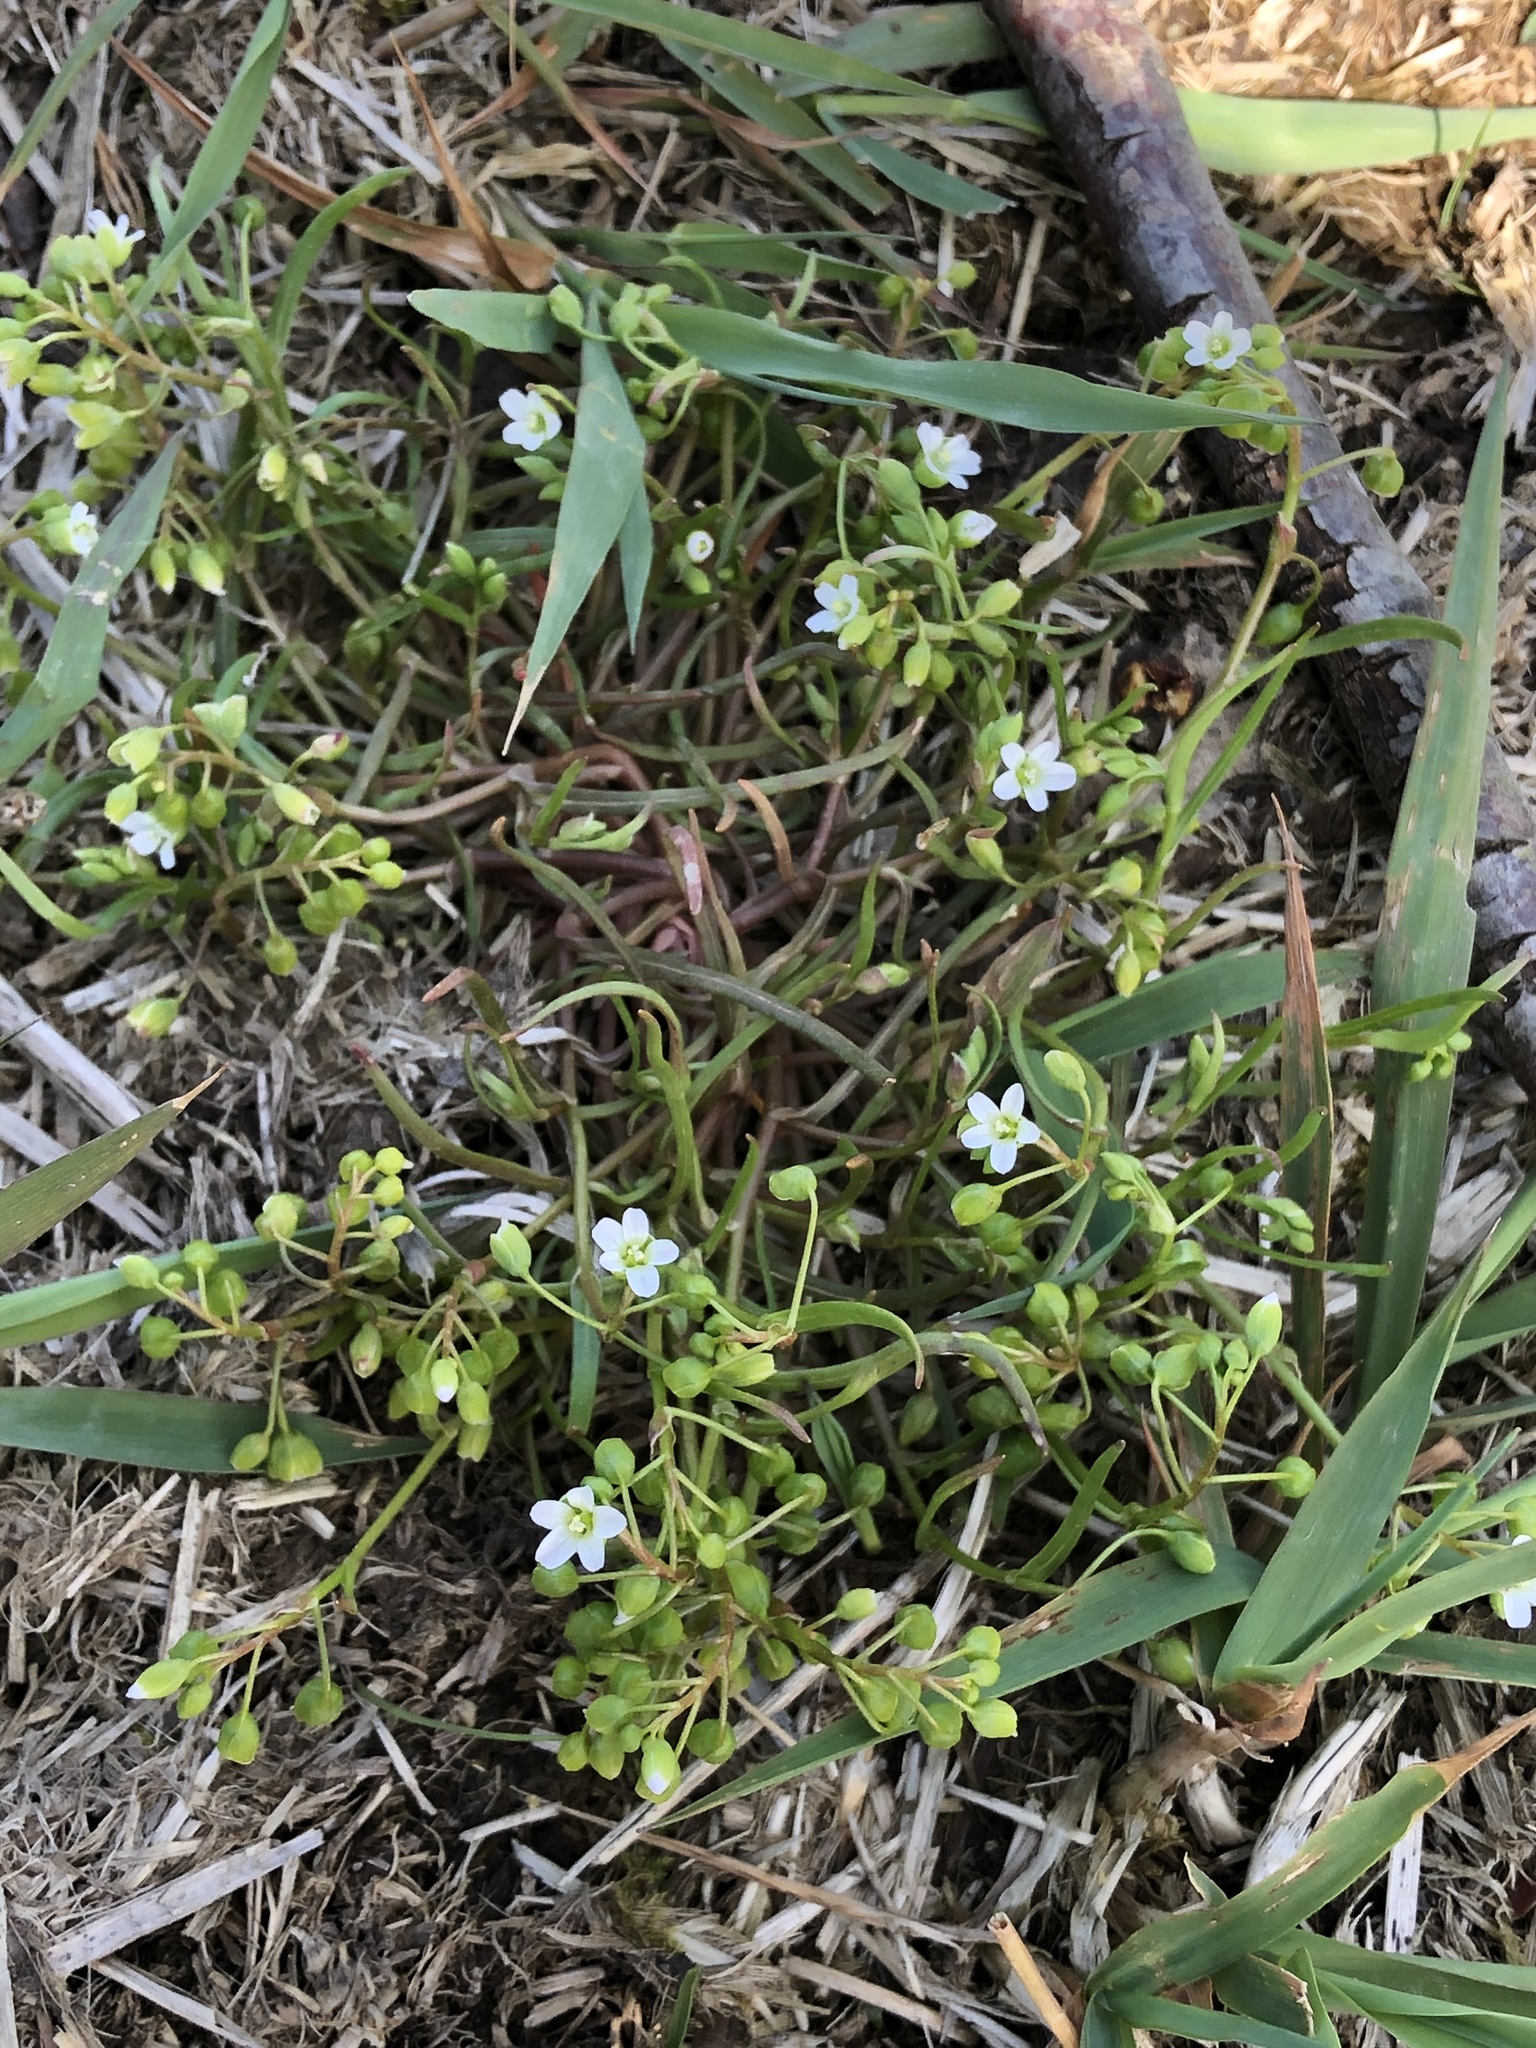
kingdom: Plantae
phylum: Tracheophyta
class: Magnoliopsida
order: Caryophyllales
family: Montiaceae
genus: Montia
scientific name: Montia linearis
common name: Narrow-leaf montia
